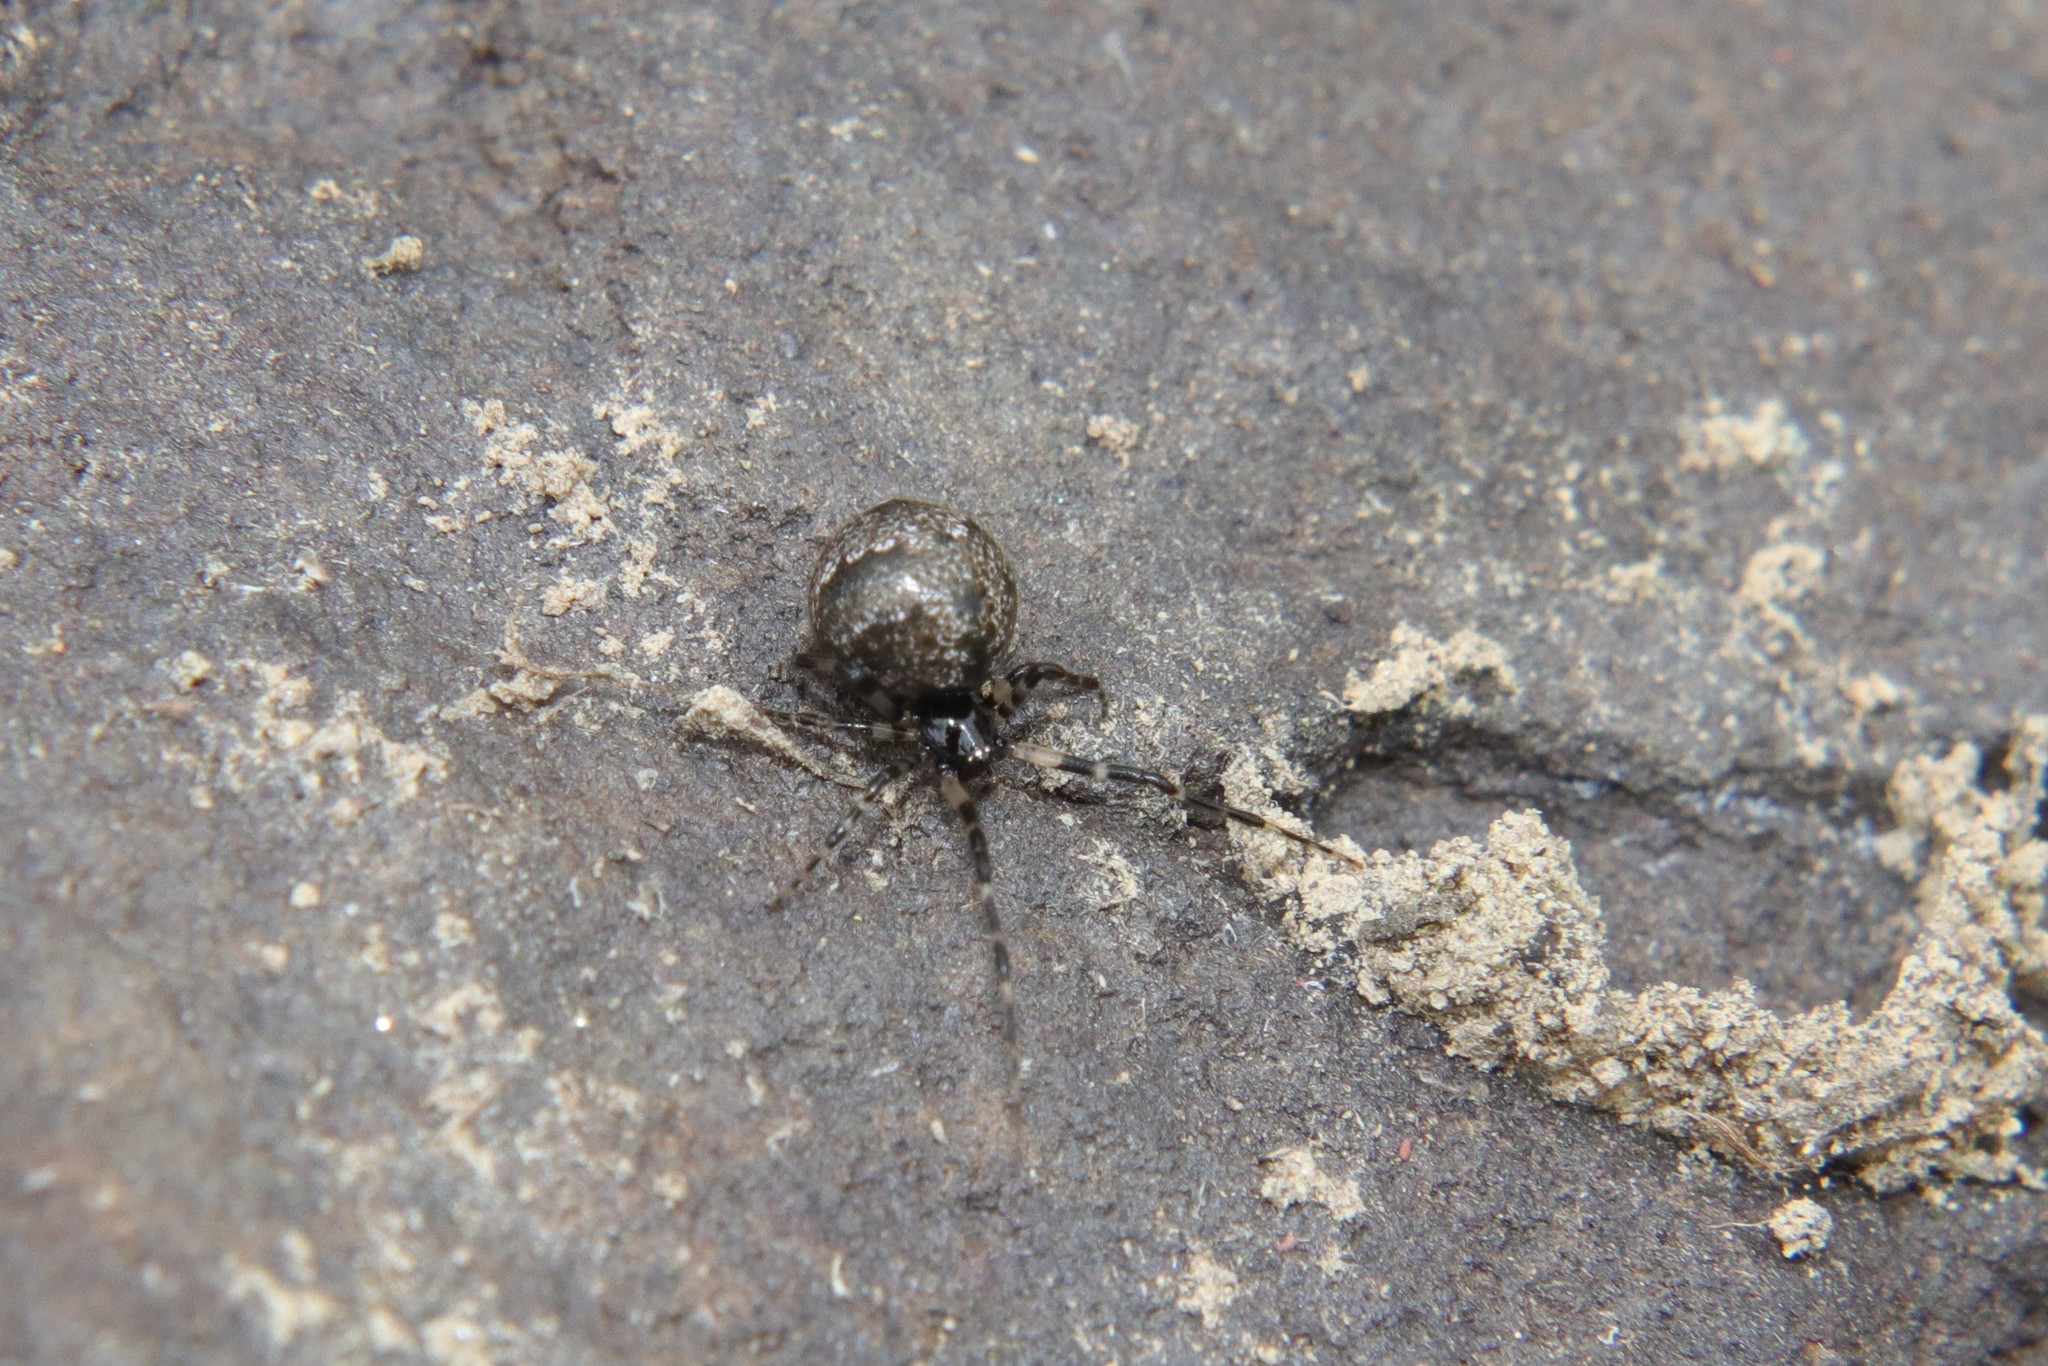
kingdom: Animalia
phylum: Arthropoda
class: Arachnida
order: Araneae
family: Theridiidae
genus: Cryptachaea
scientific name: Cryptachaea blattea
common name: Theridiid spider
